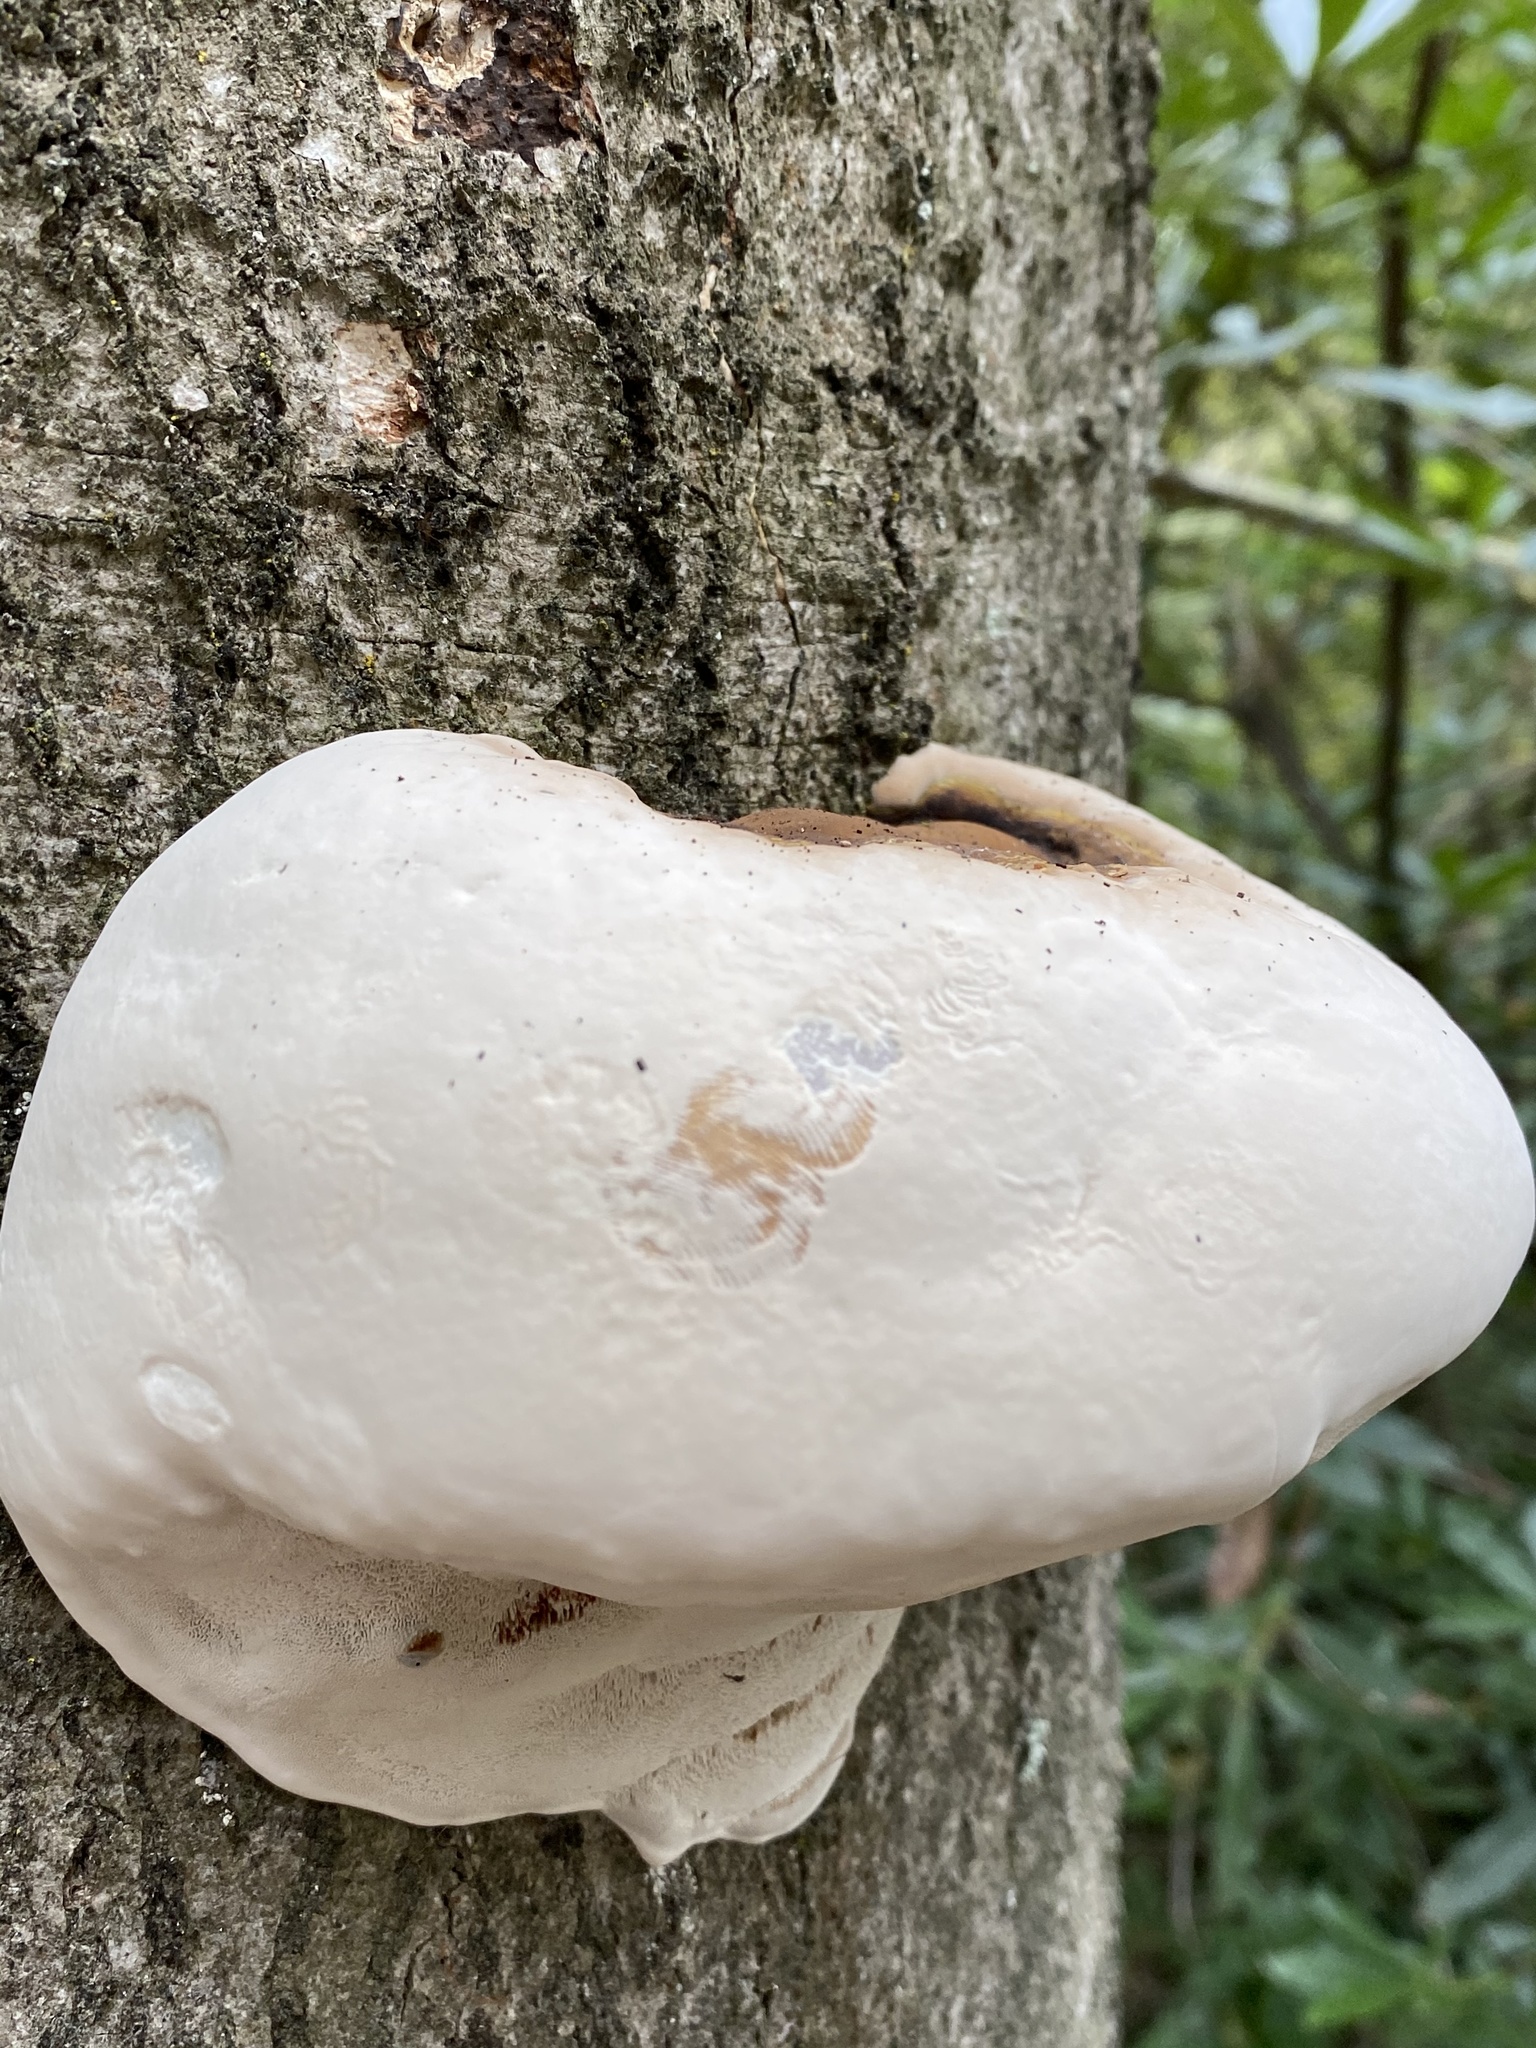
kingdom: Fungi
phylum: Basidiomycota
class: Agaricomycetes
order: Polyporales
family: Polyporaceae
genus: Ganoderma
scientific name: Ganoderma resinaceum
